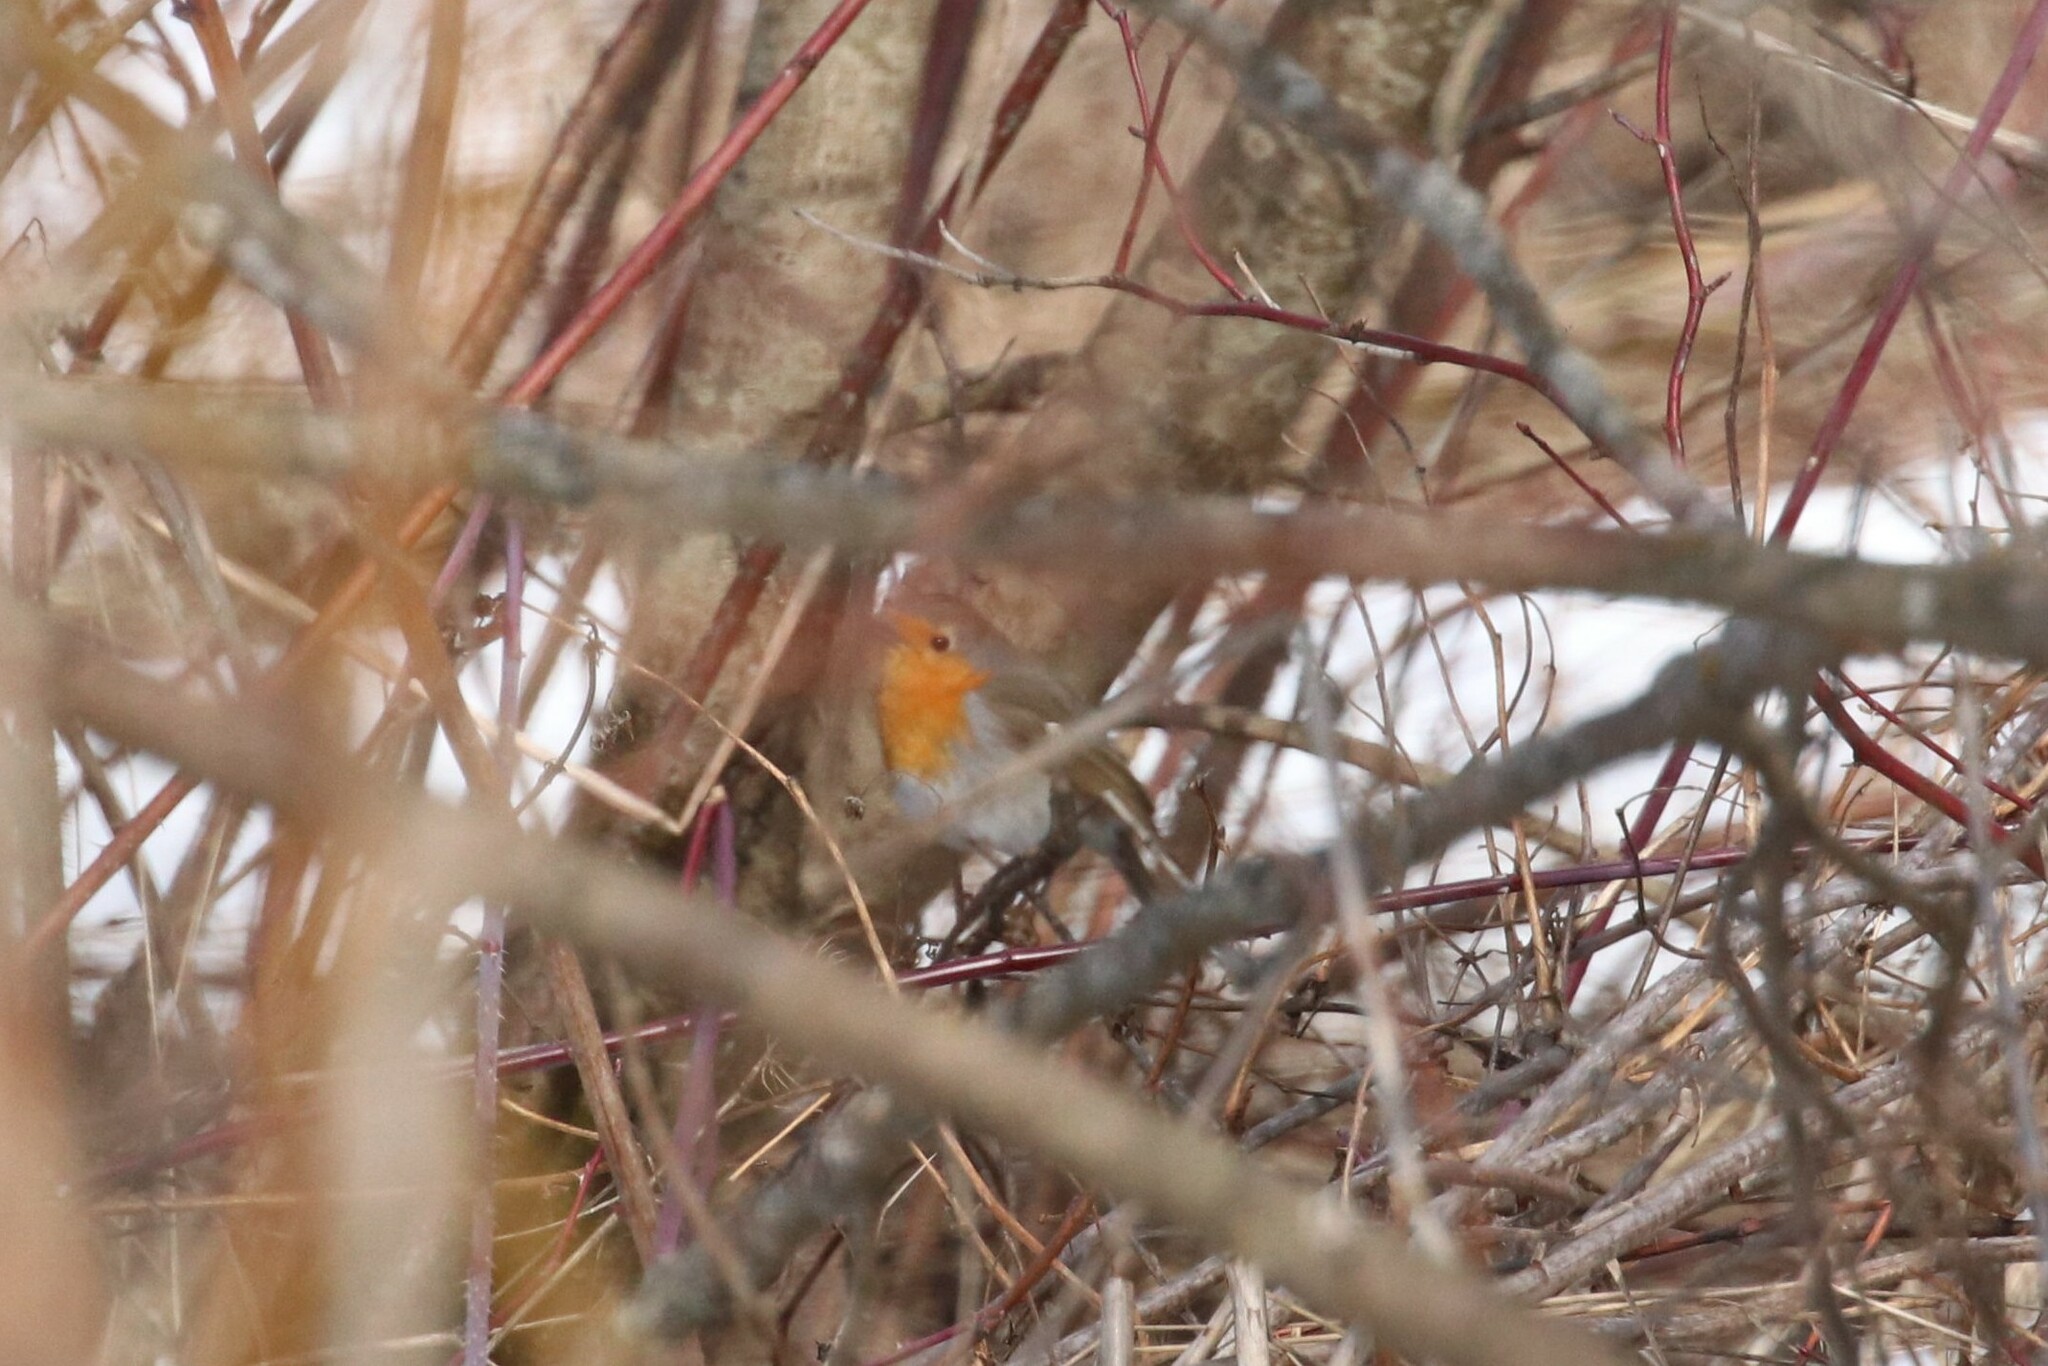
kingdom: Animalia
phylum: Chordata
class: Aves
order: Passeriformes
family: Muscicapidae
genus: Erithacus
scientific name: Erithacus rubecula
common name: European robin
